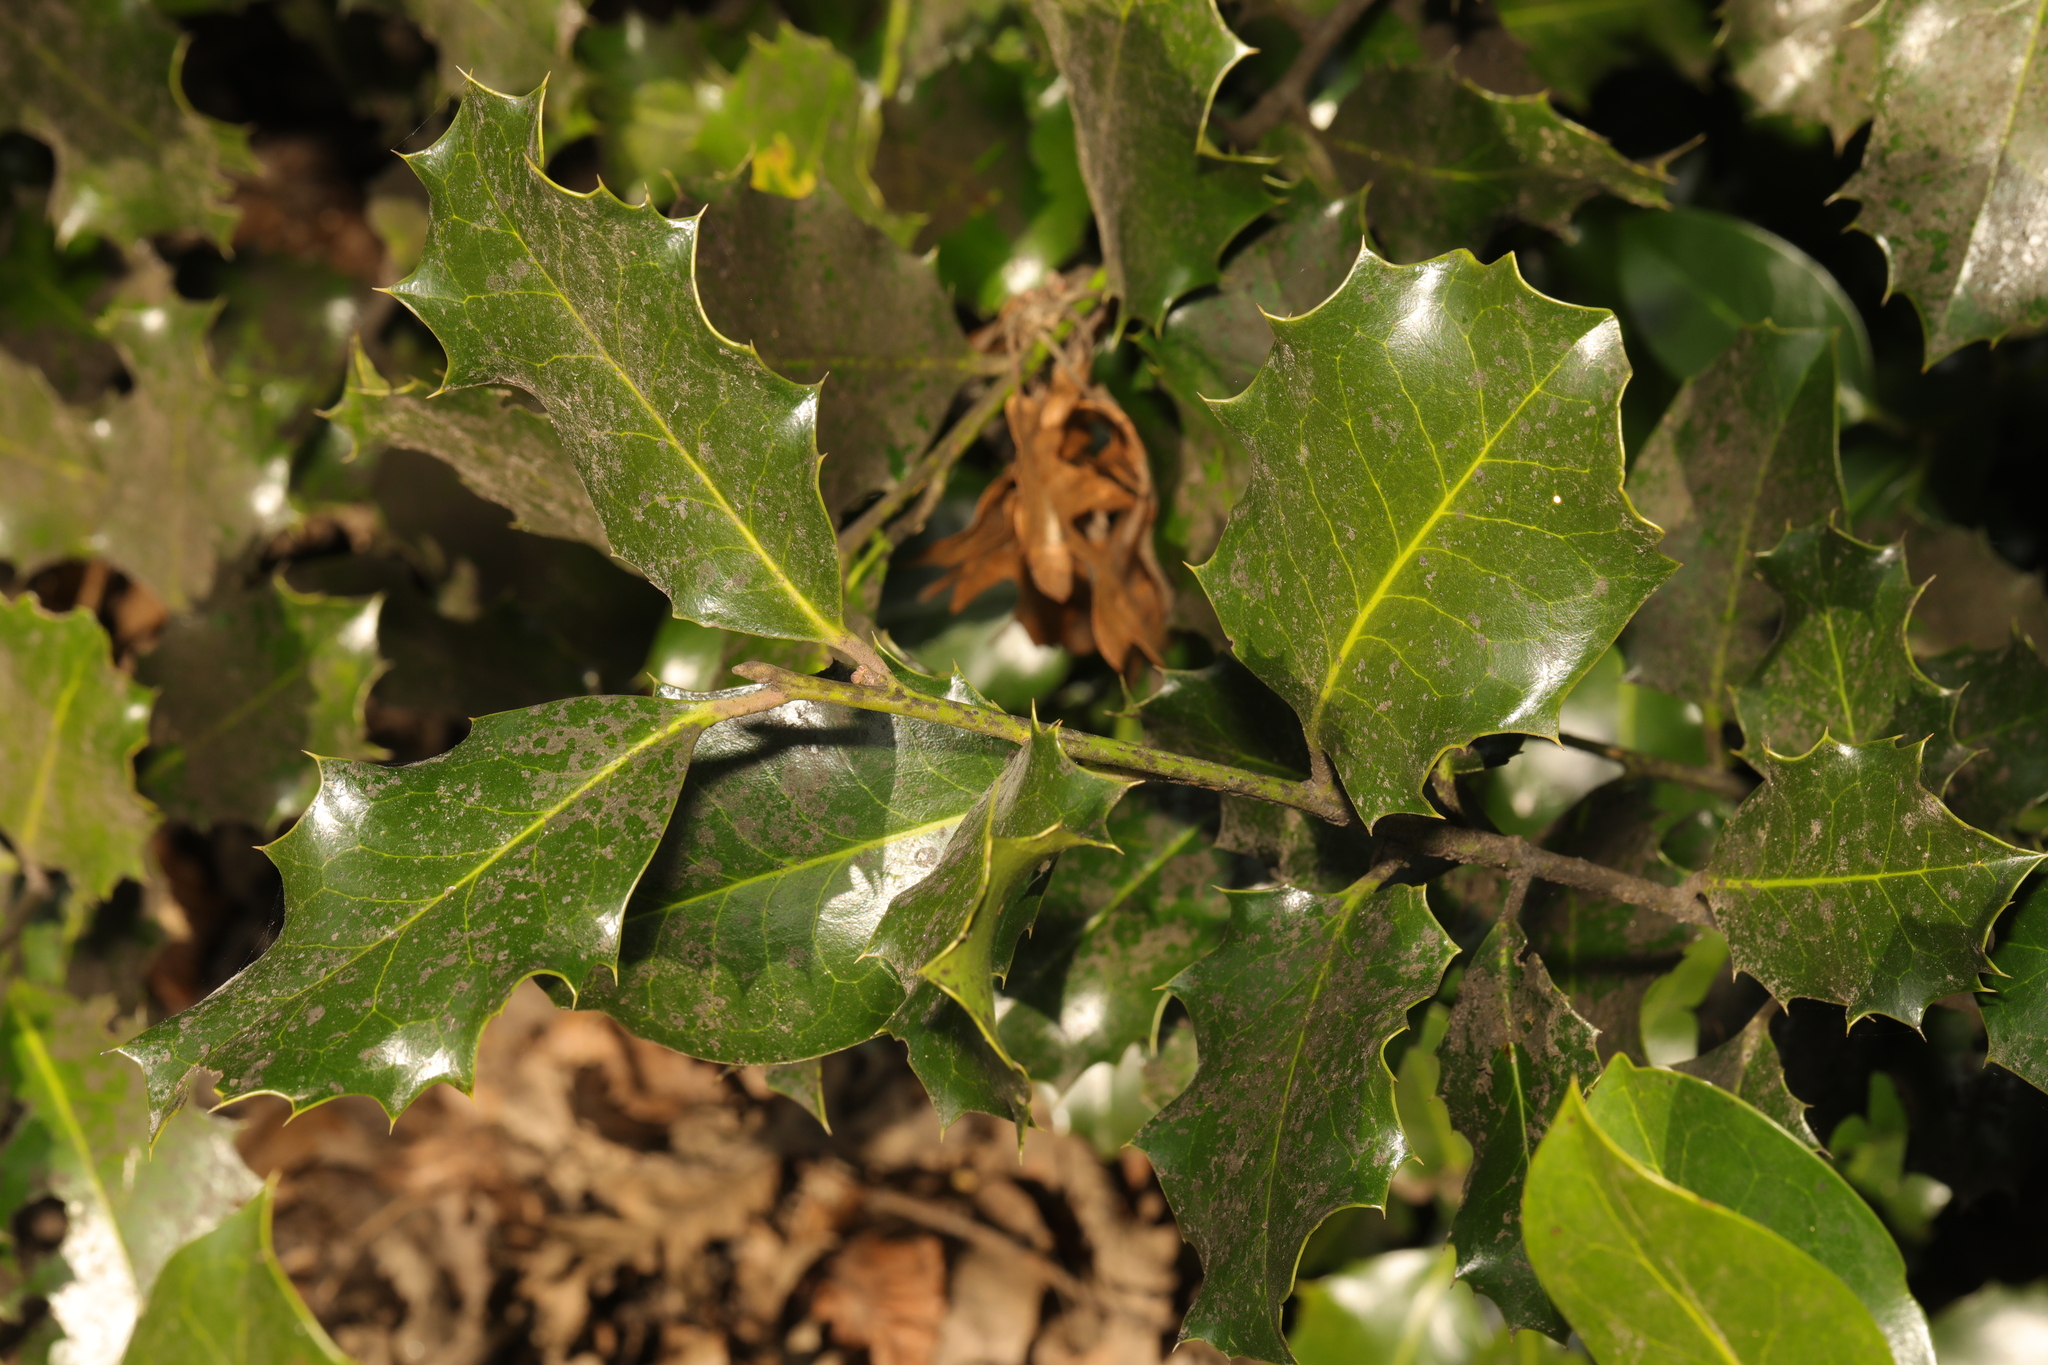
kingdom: Plantae
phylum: Tracheophyta
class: Magnoliopsida
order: Aquifoliales
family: Aquifoliaceae
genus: Ilex
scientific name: Ilex aquifolium
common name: English holly
